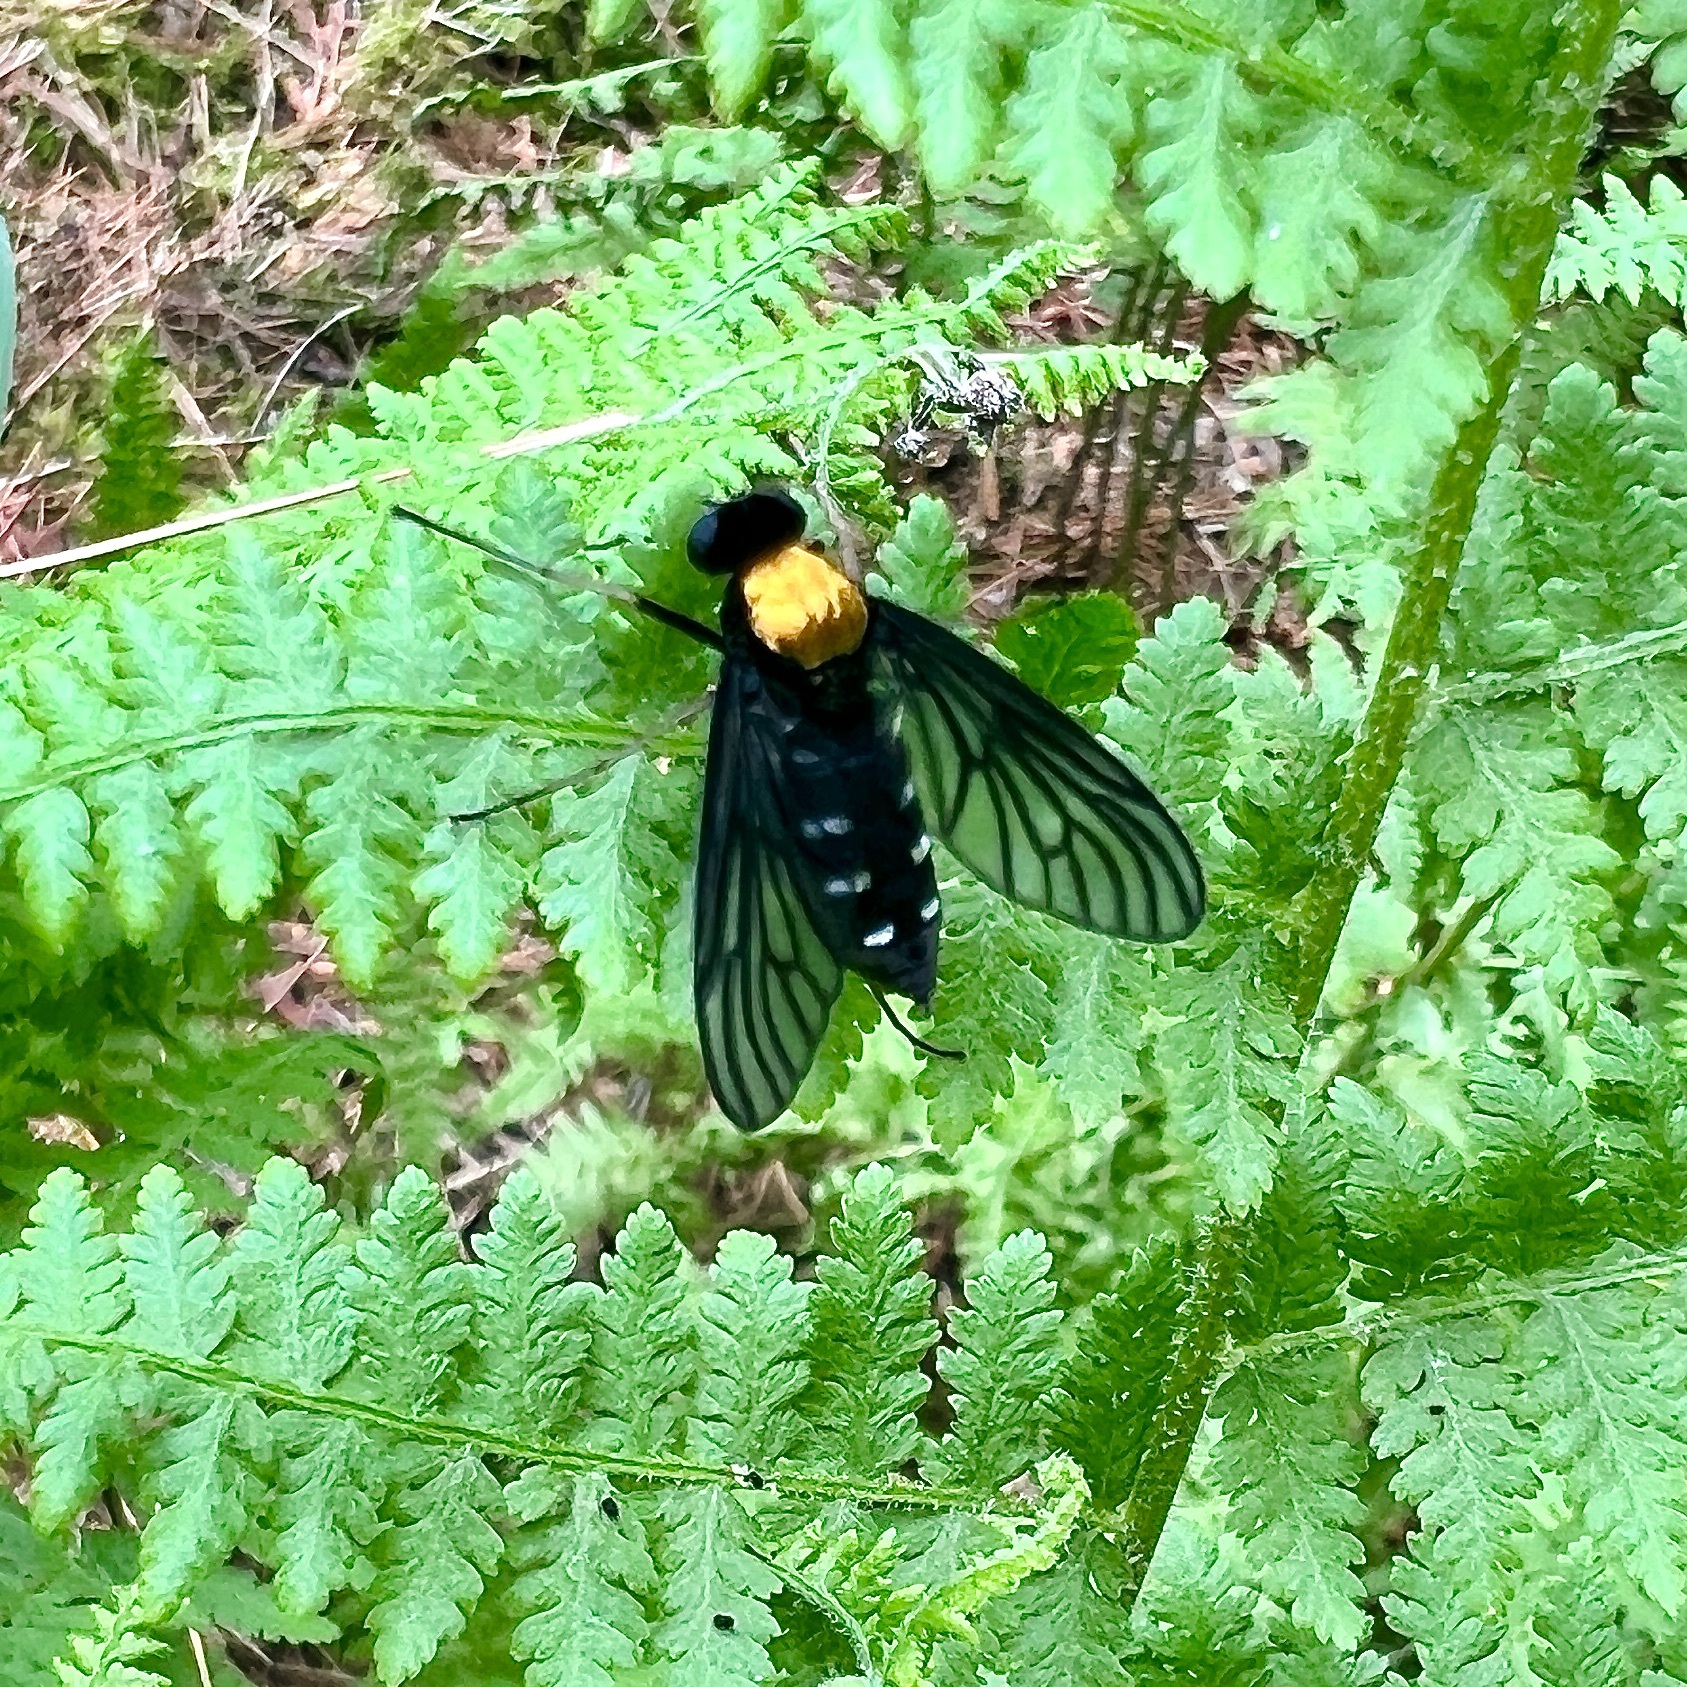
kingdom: Animalia
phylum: Arthropoda
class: Insecta
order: Diptera
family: Rhagionidae
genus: Chrysopilus
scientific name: Chrysopilus thoracicus
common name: Golden-backed snipe fly
